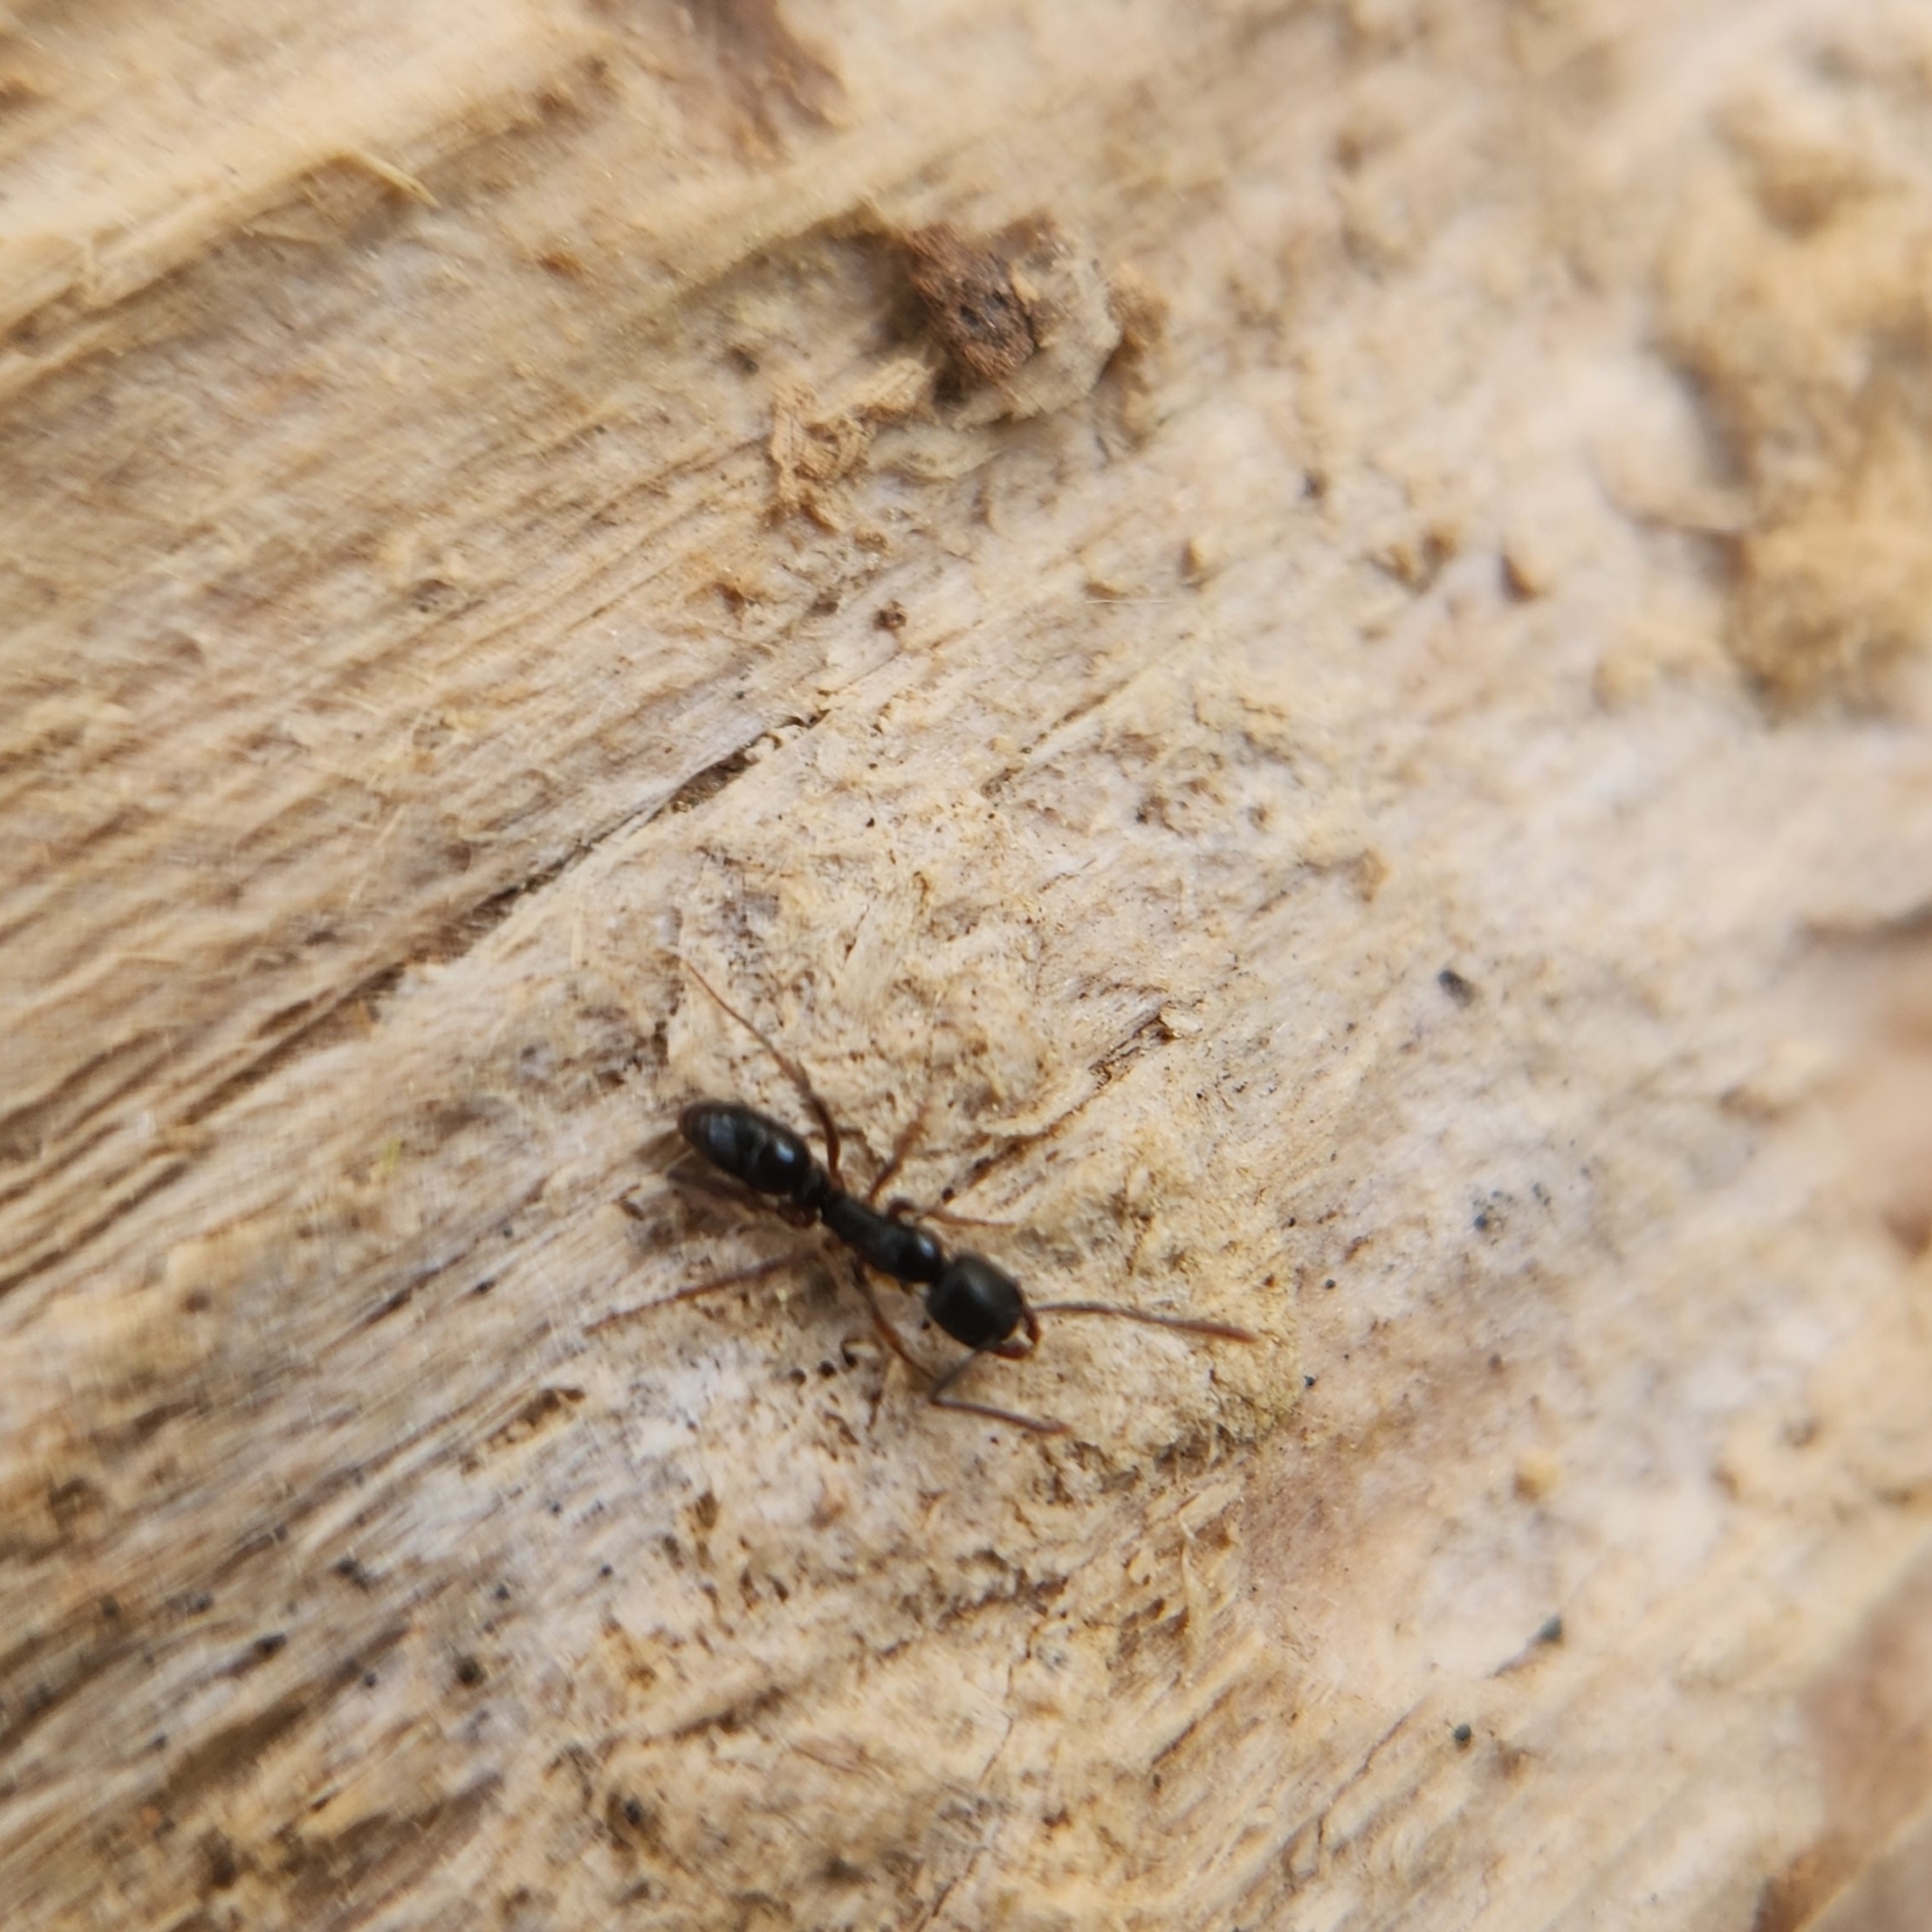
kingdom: Animalia
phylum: Arthropoda
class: Insecta
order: Hymenoptera
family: Formicidae
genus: Pachycondyla
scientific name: Pachycondyla chinensis
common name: Asian needle ant
